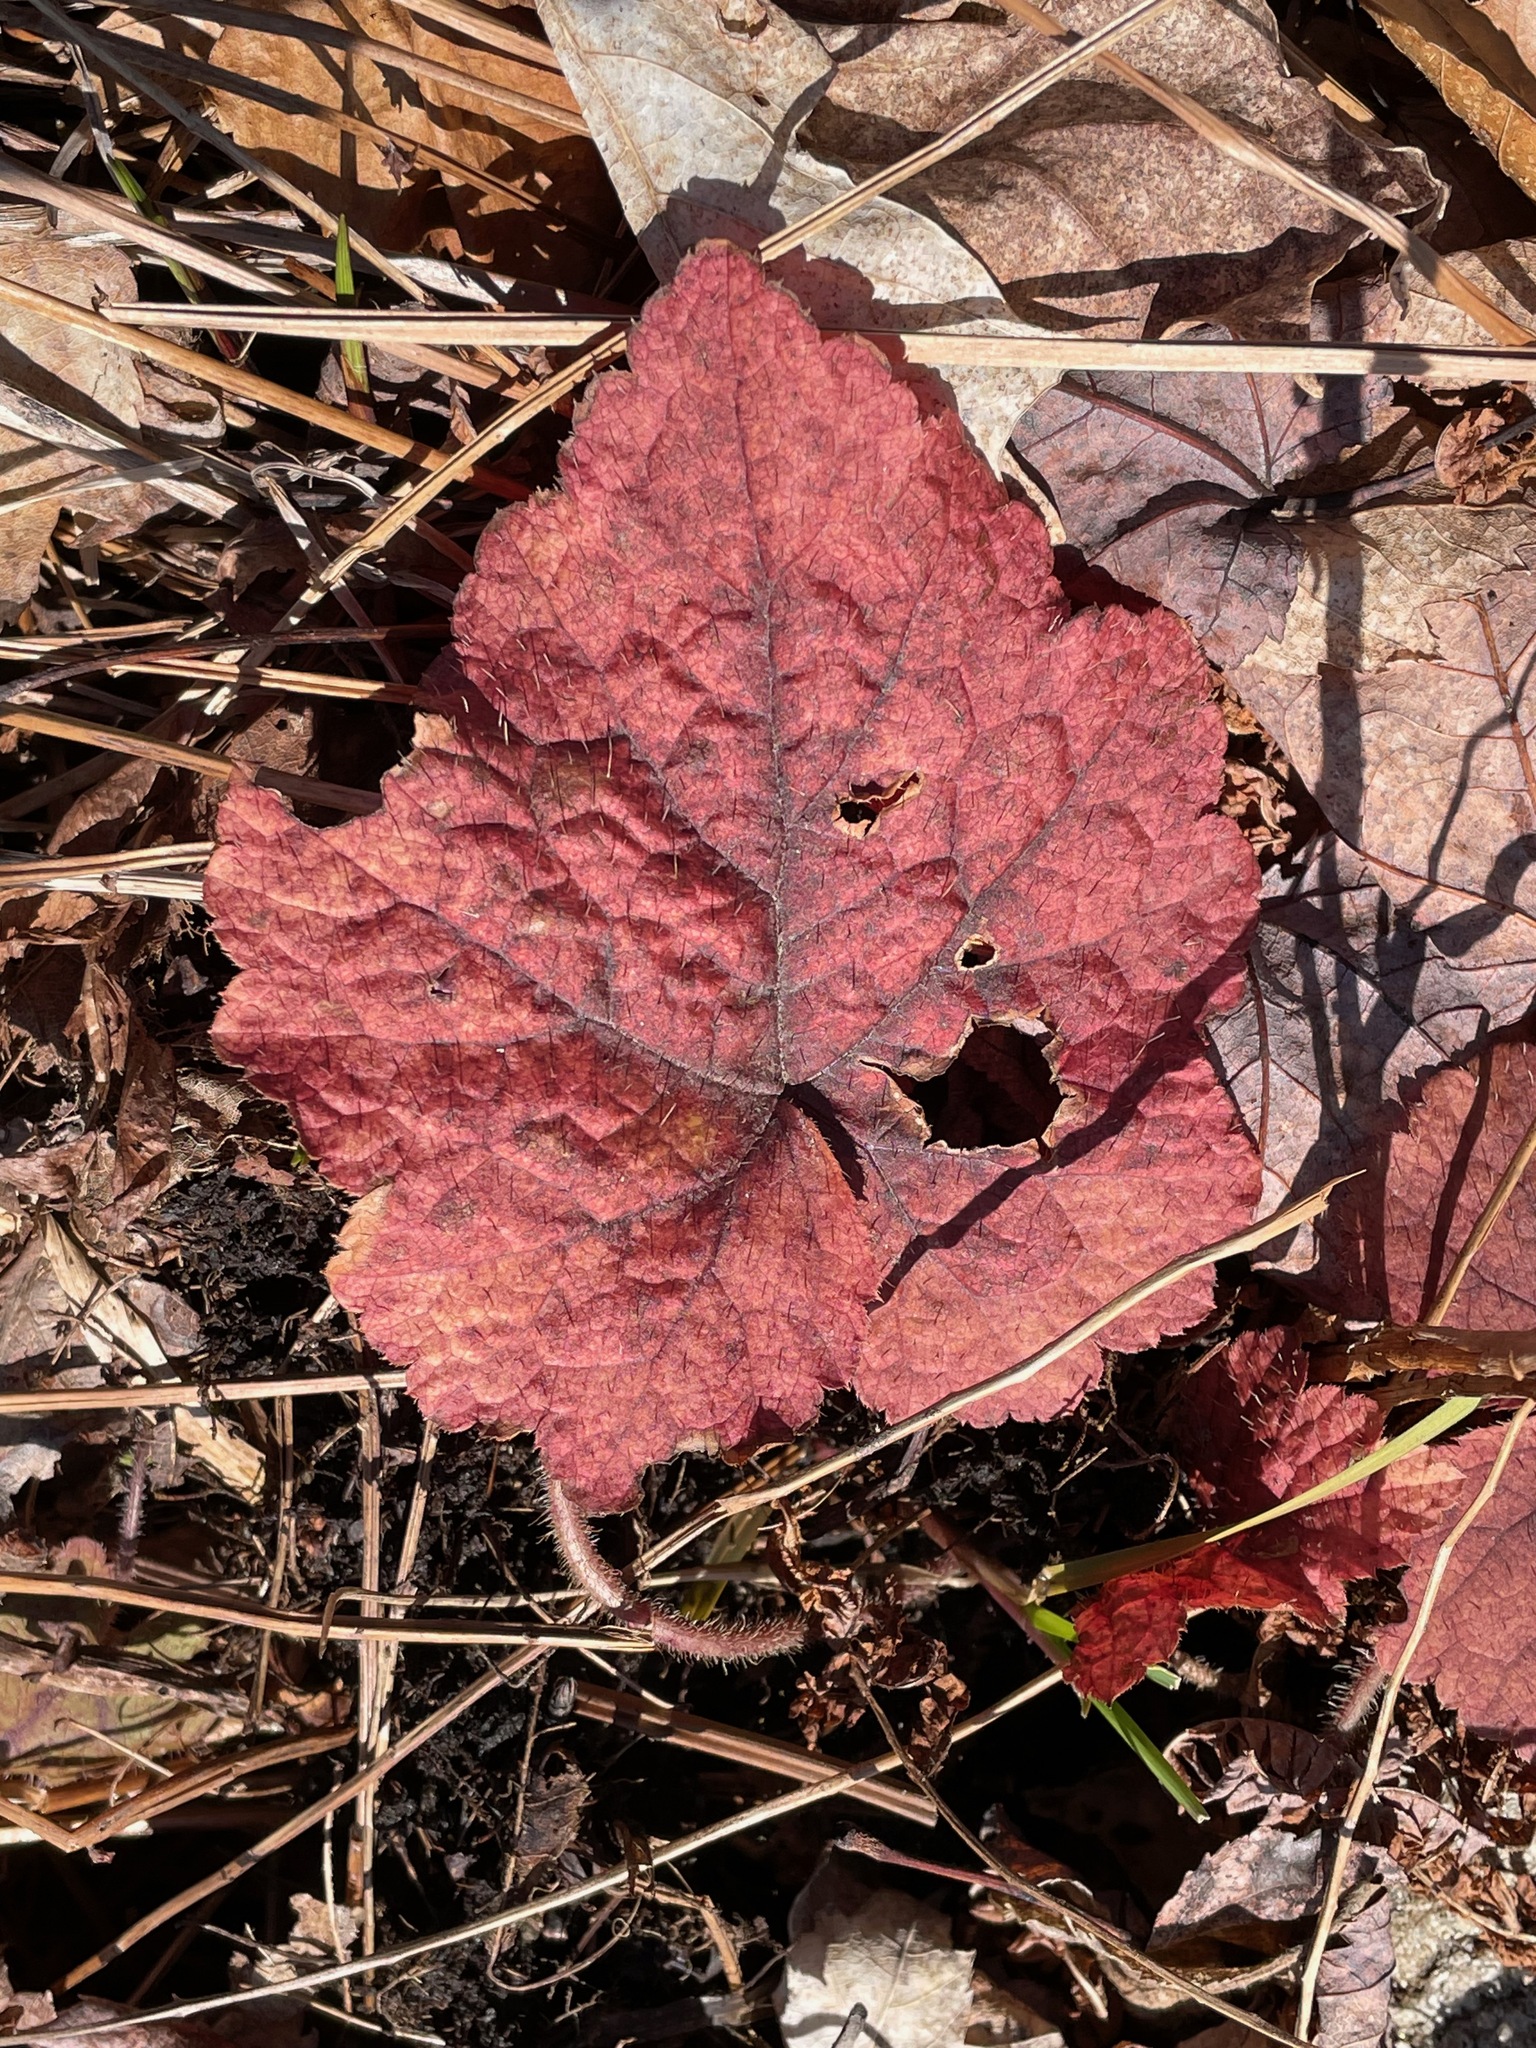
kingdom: Plantae
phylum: Tracheophyta
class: Magnoliopsida
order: Saxifragales
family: Saxifragaceae
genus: Tiarella
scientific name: Tiarella stolonifera
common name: Stoloniferous foamflower
